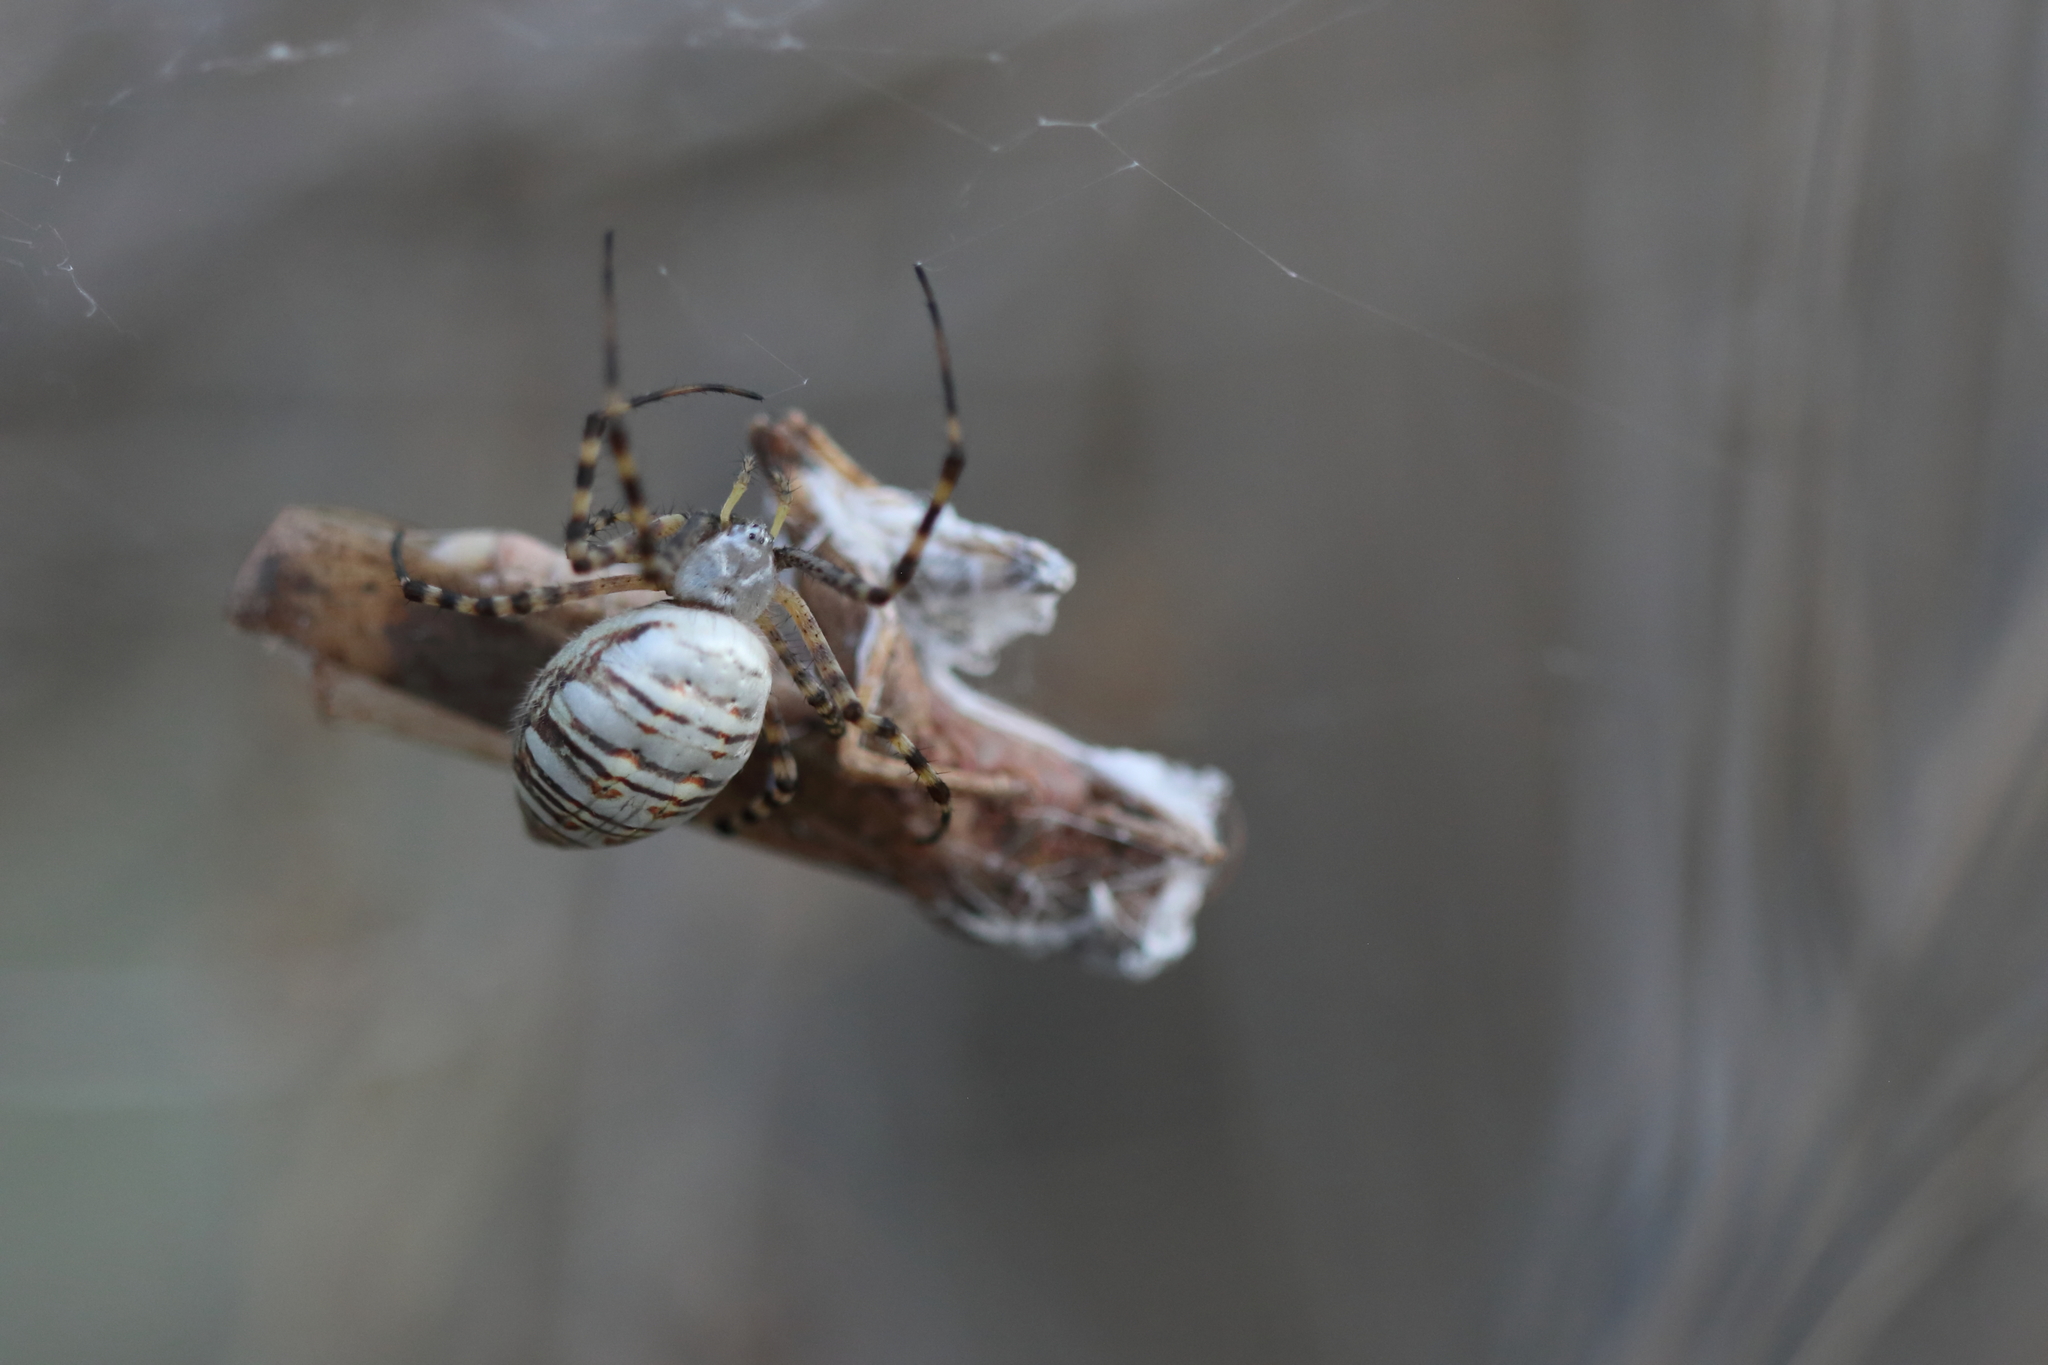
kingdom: Animalia
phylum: Arthropoda
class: Arachnida
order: Araneae
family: Araneidae
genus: Argiope
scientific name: Argiope trifasciata
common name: Banded garden spider
